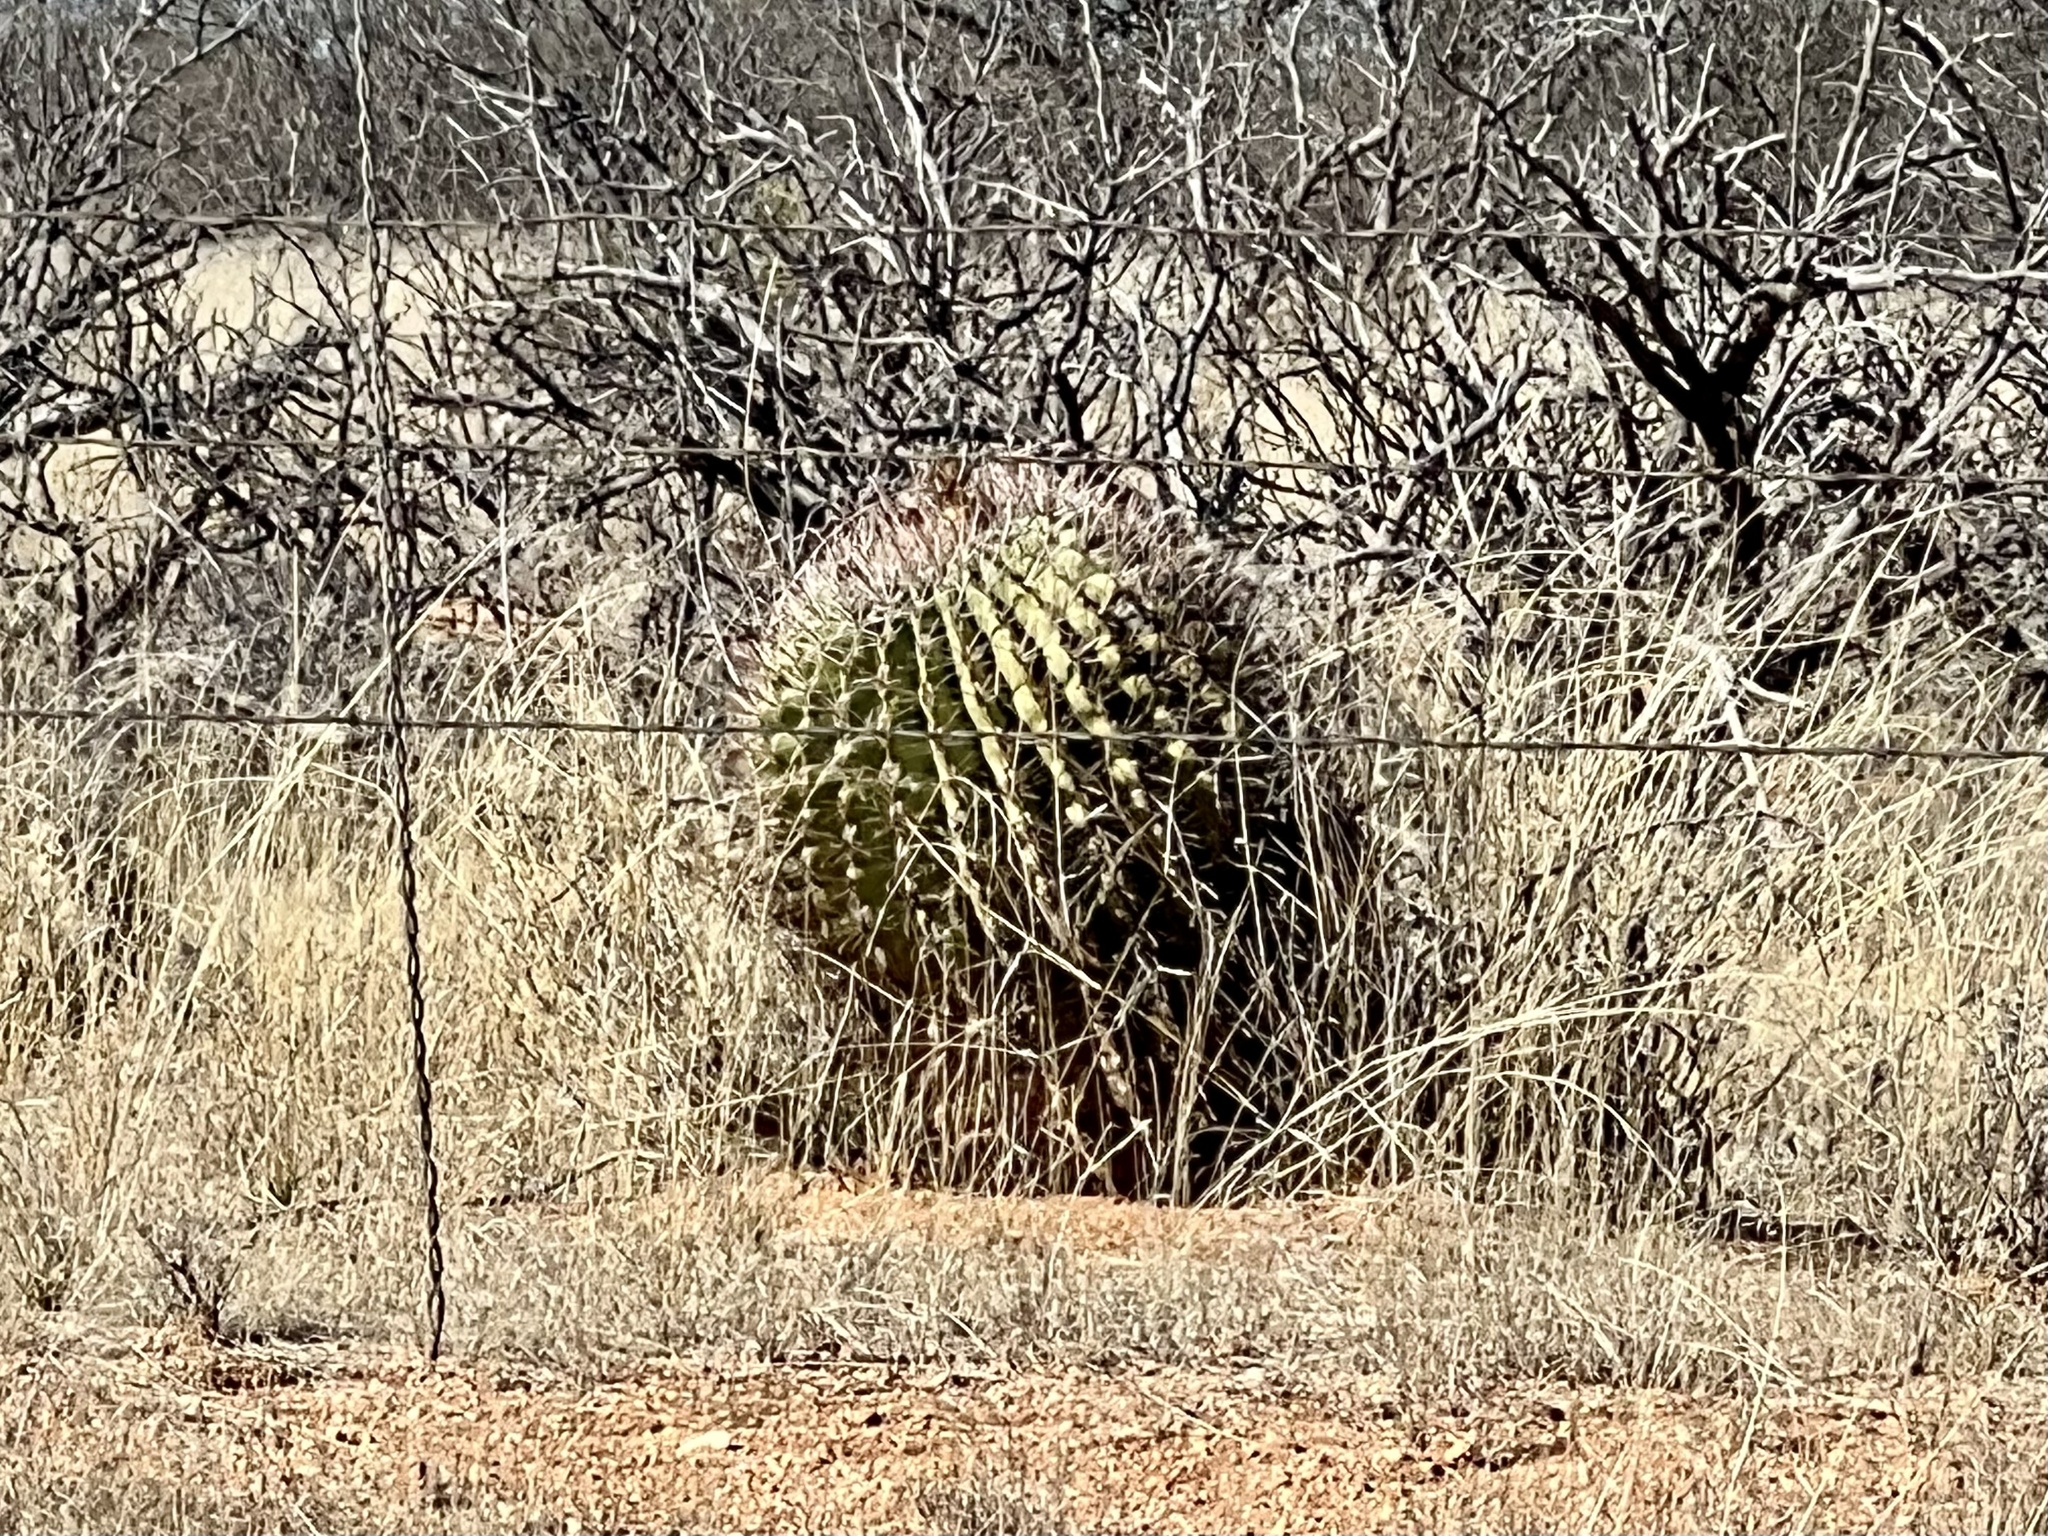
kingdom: Plantae
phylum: Tracheophyta
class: Magnoliopsida
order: Caryophyllales
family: Cactaceae
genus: Ferocactus
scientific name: Ferocactus wislizeni
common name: Candy barrel cactus
